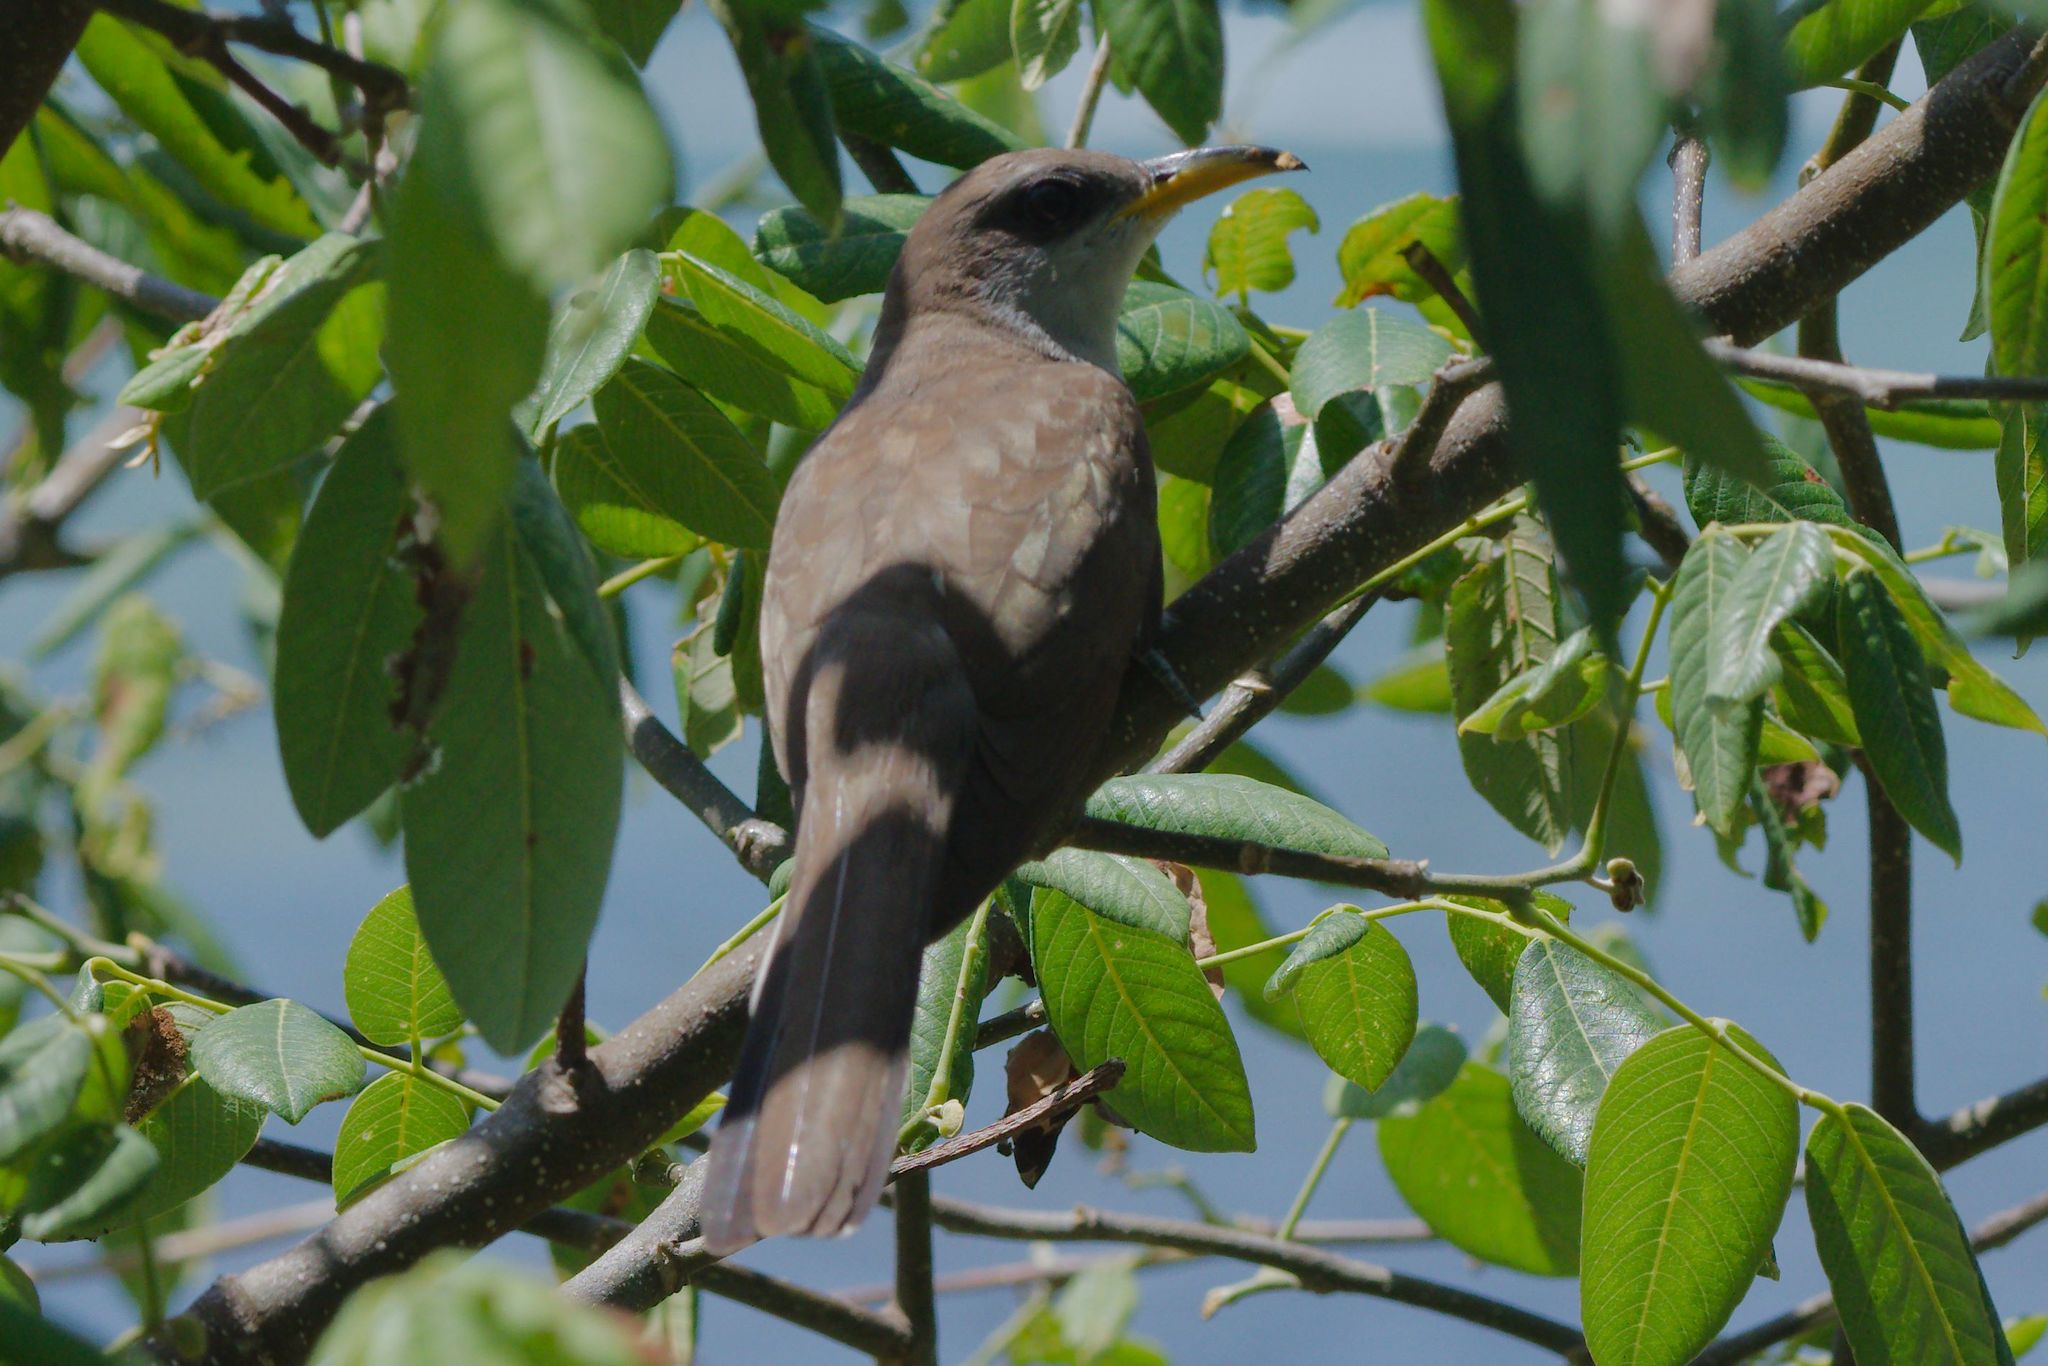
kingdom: Animalia
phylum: Chordata
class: Aves
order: Cuculiformes
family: Cuculidae
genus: Coccyzus
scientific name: Coccyzus americanus
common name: Yellow-billed cuckoo
